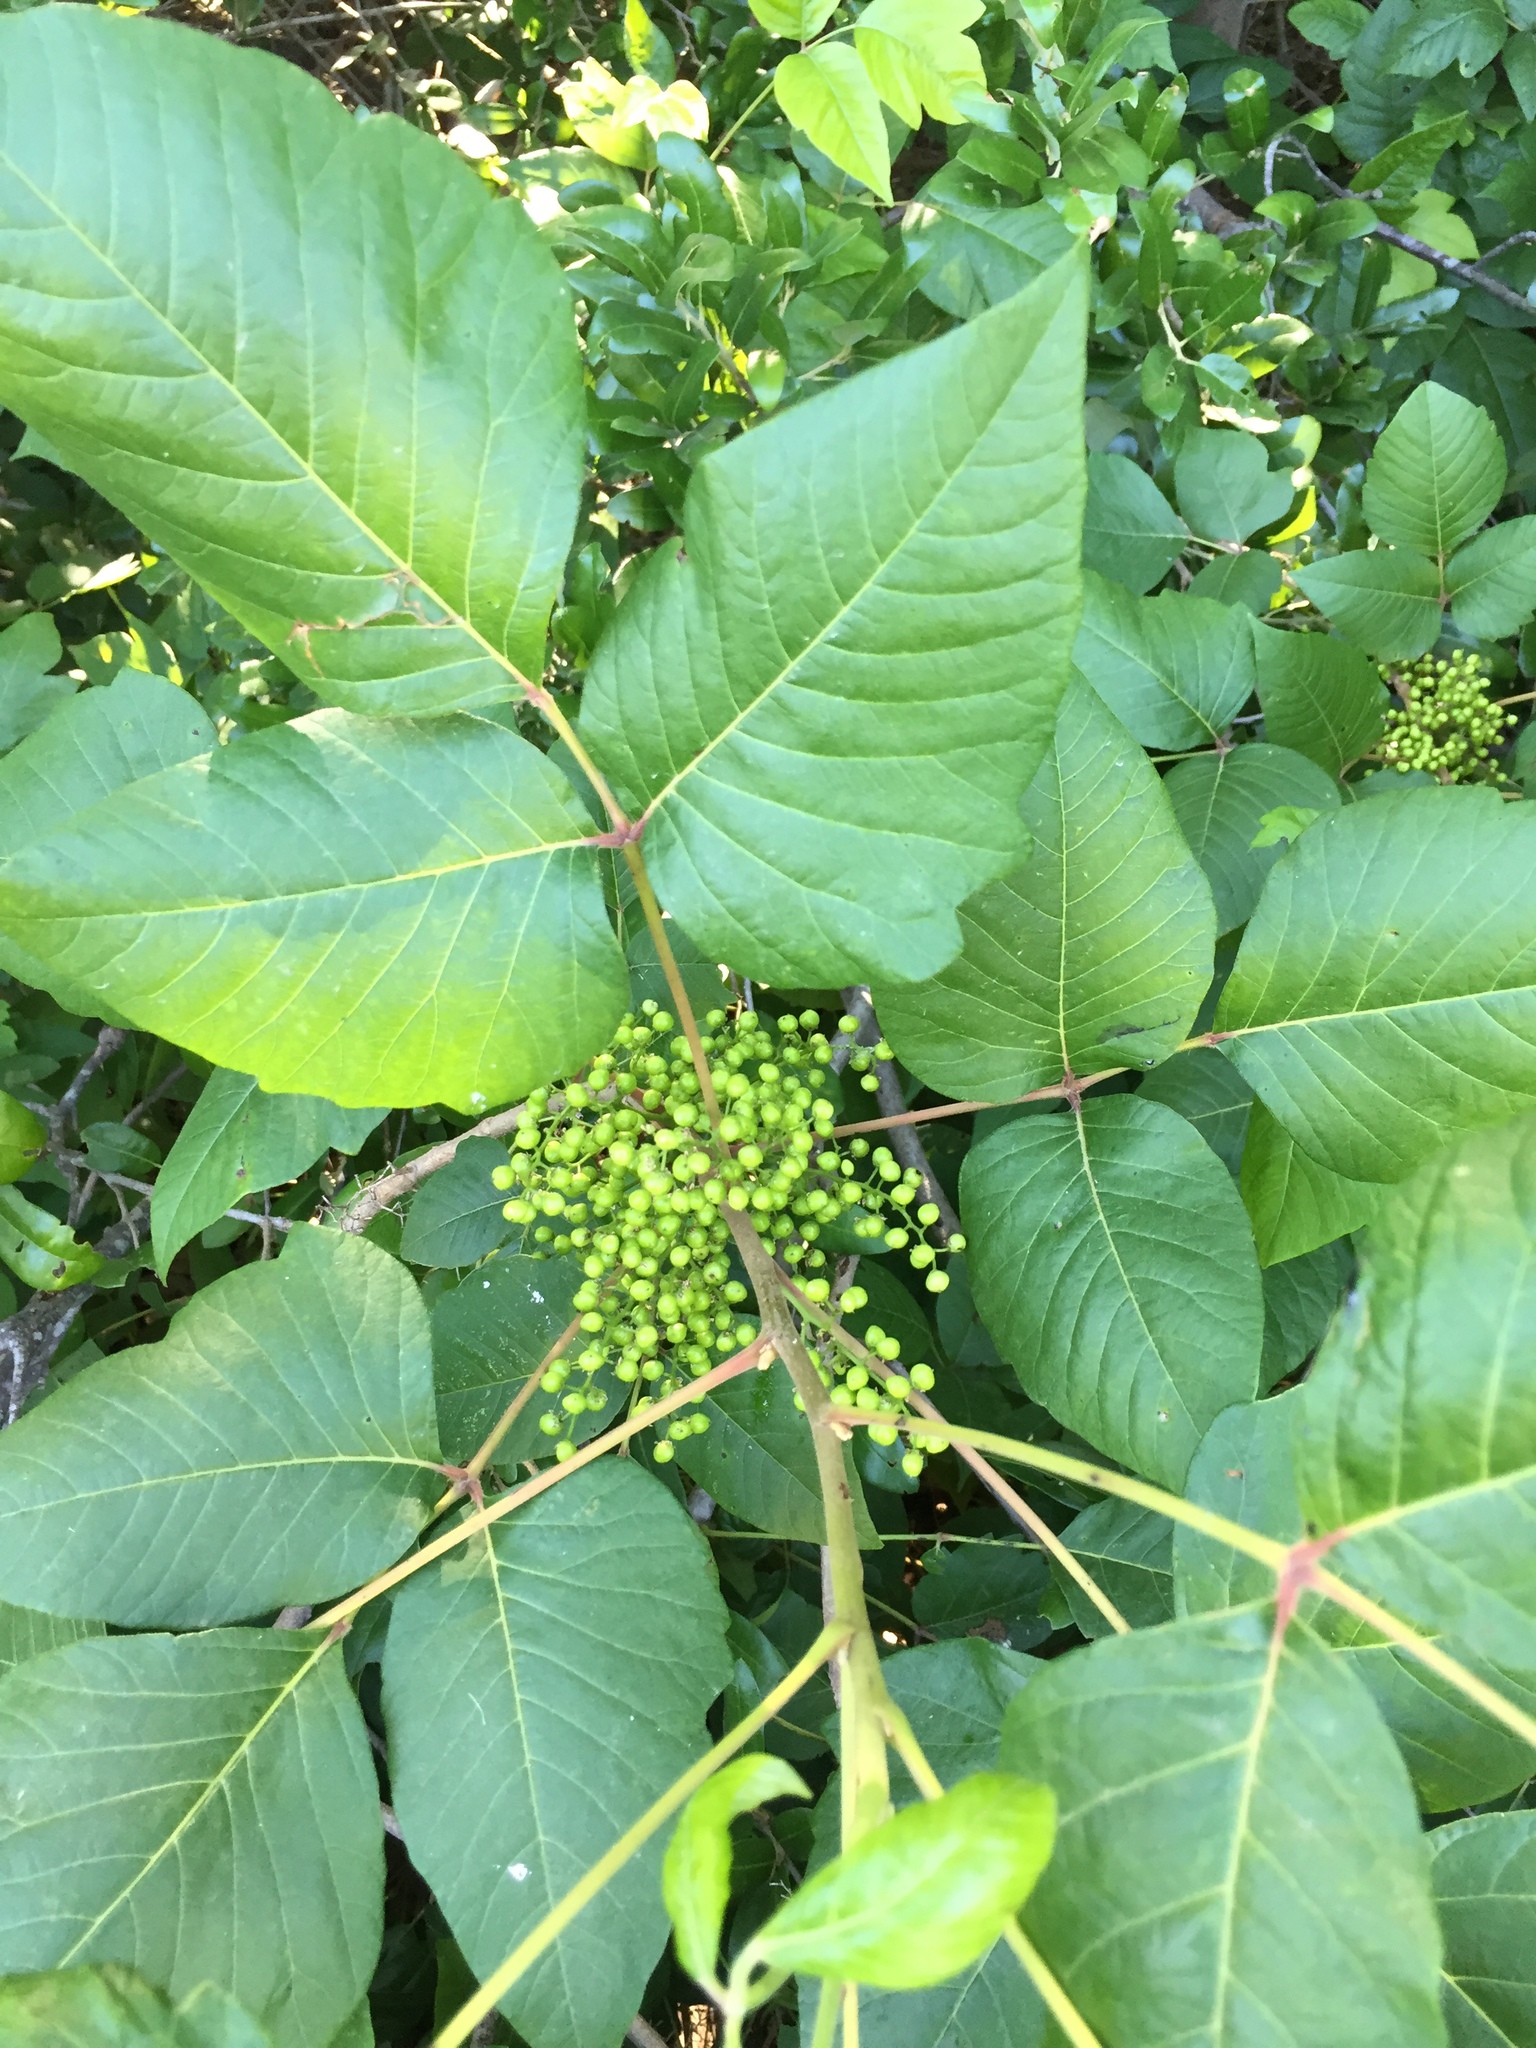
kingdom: Plantae
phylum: Tracheophyta
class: Magnoliopsida
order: Sapindales
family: Anacardiaceae
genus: Toxicodendron
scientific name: Toxicodendron radicans
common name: Poison ivy
